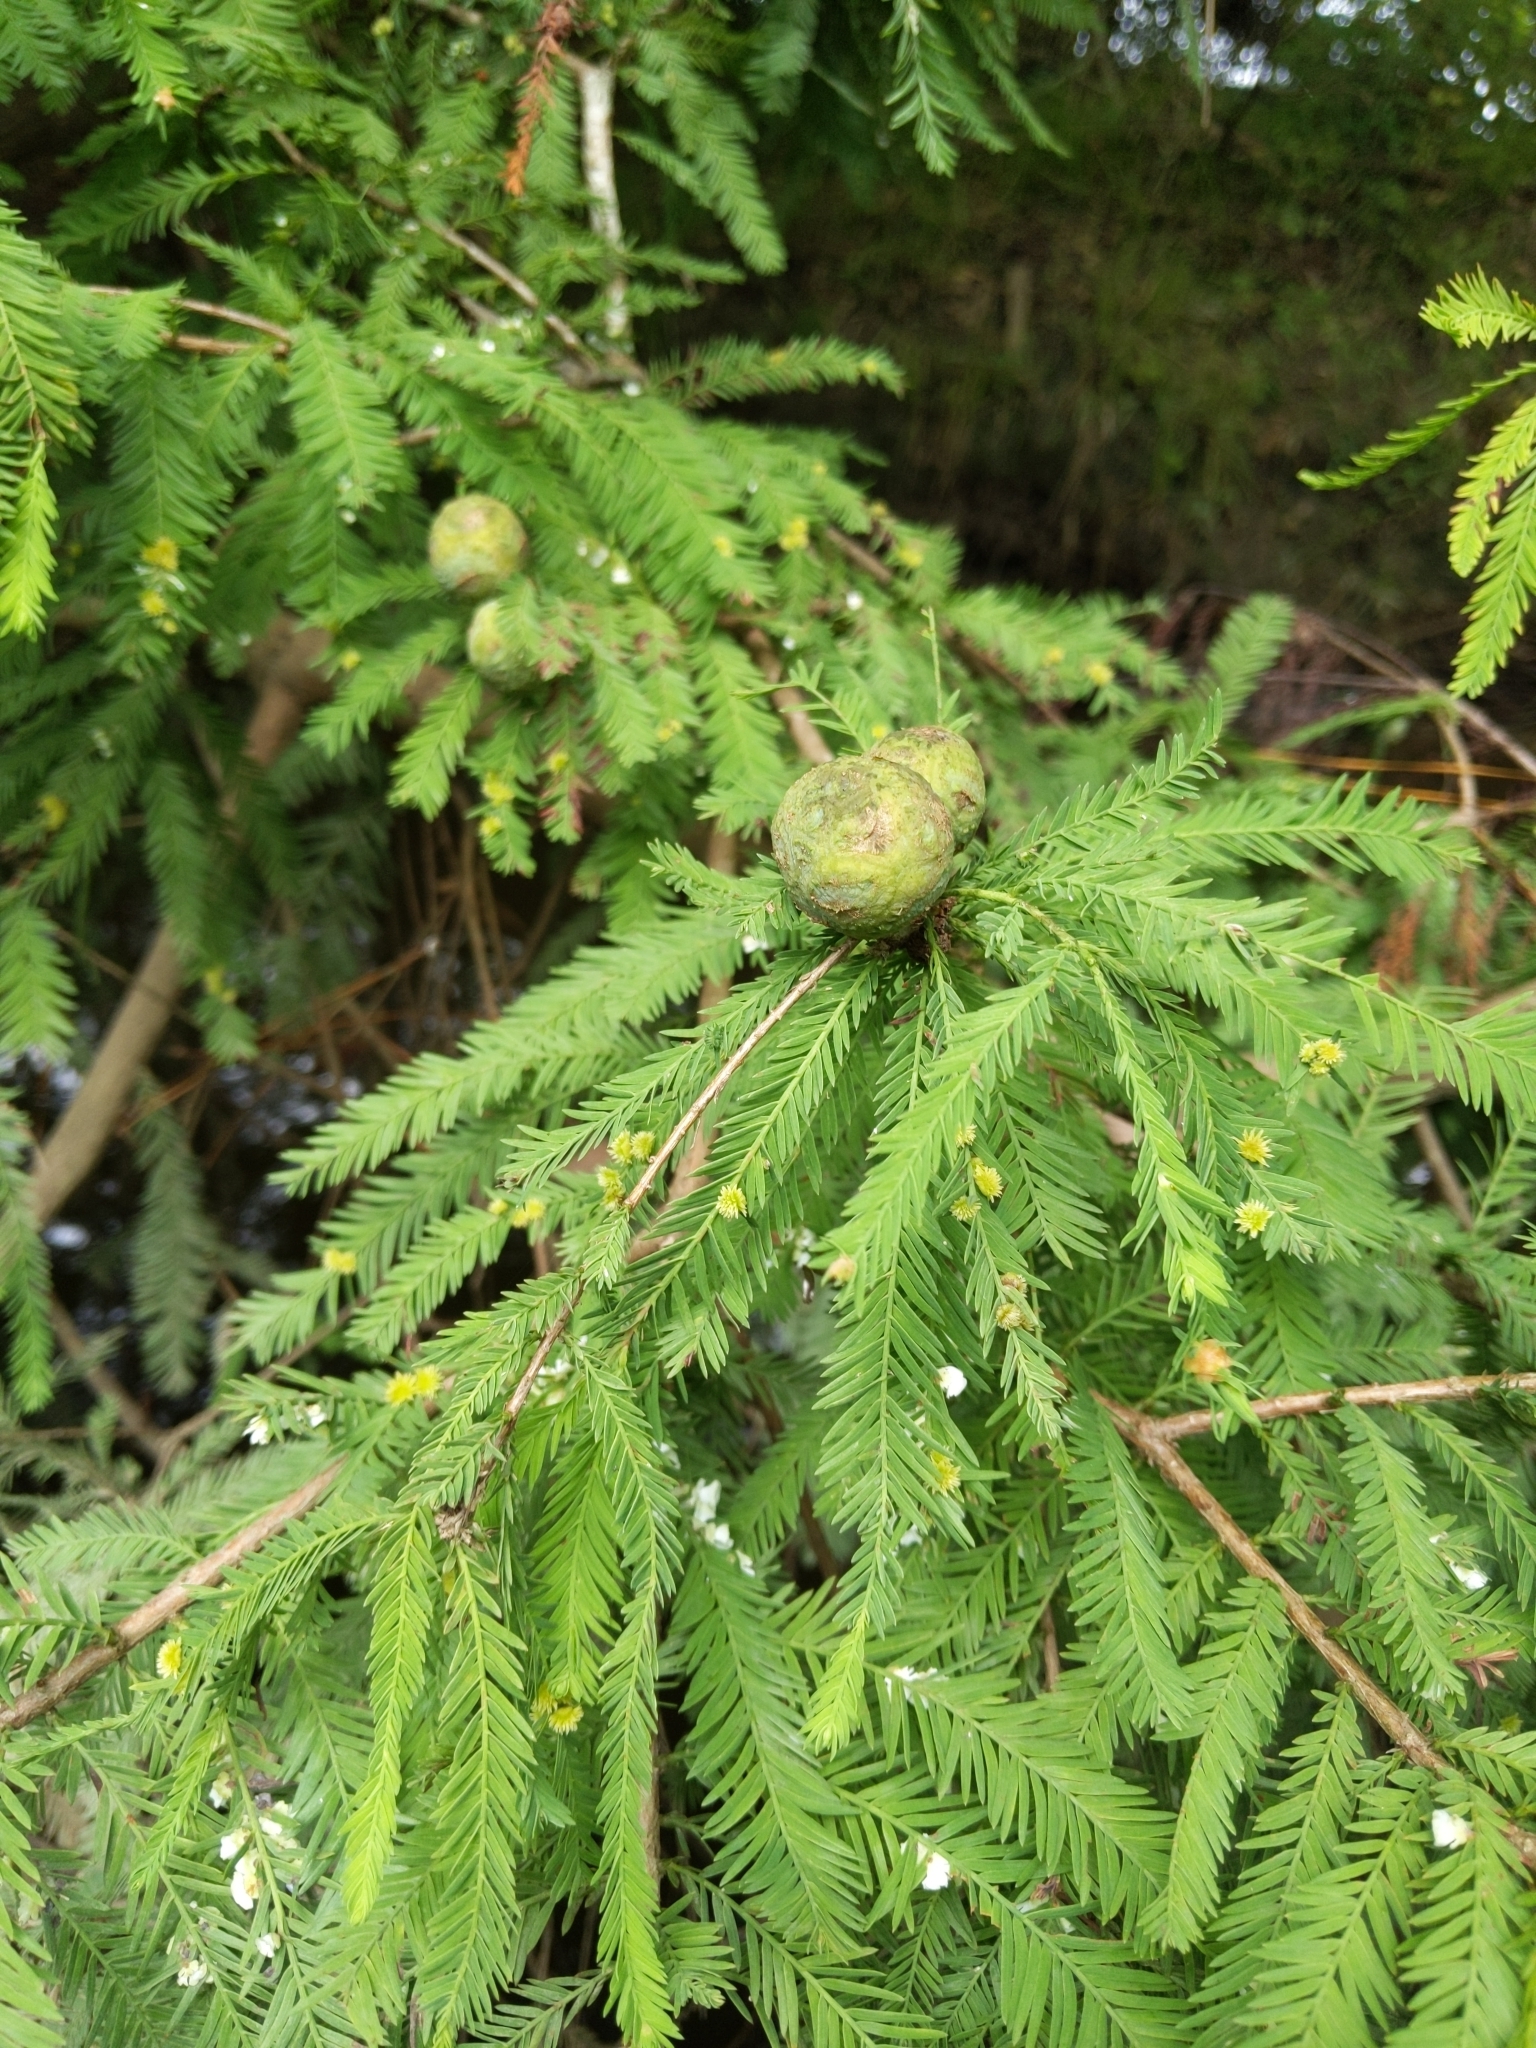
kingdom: Plantae
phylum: Tracheophyta
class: Pinopsida
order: Pinales
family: Cupressaceae
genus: Taxodium
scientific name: Taxodium distichum
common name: Bald cypress
